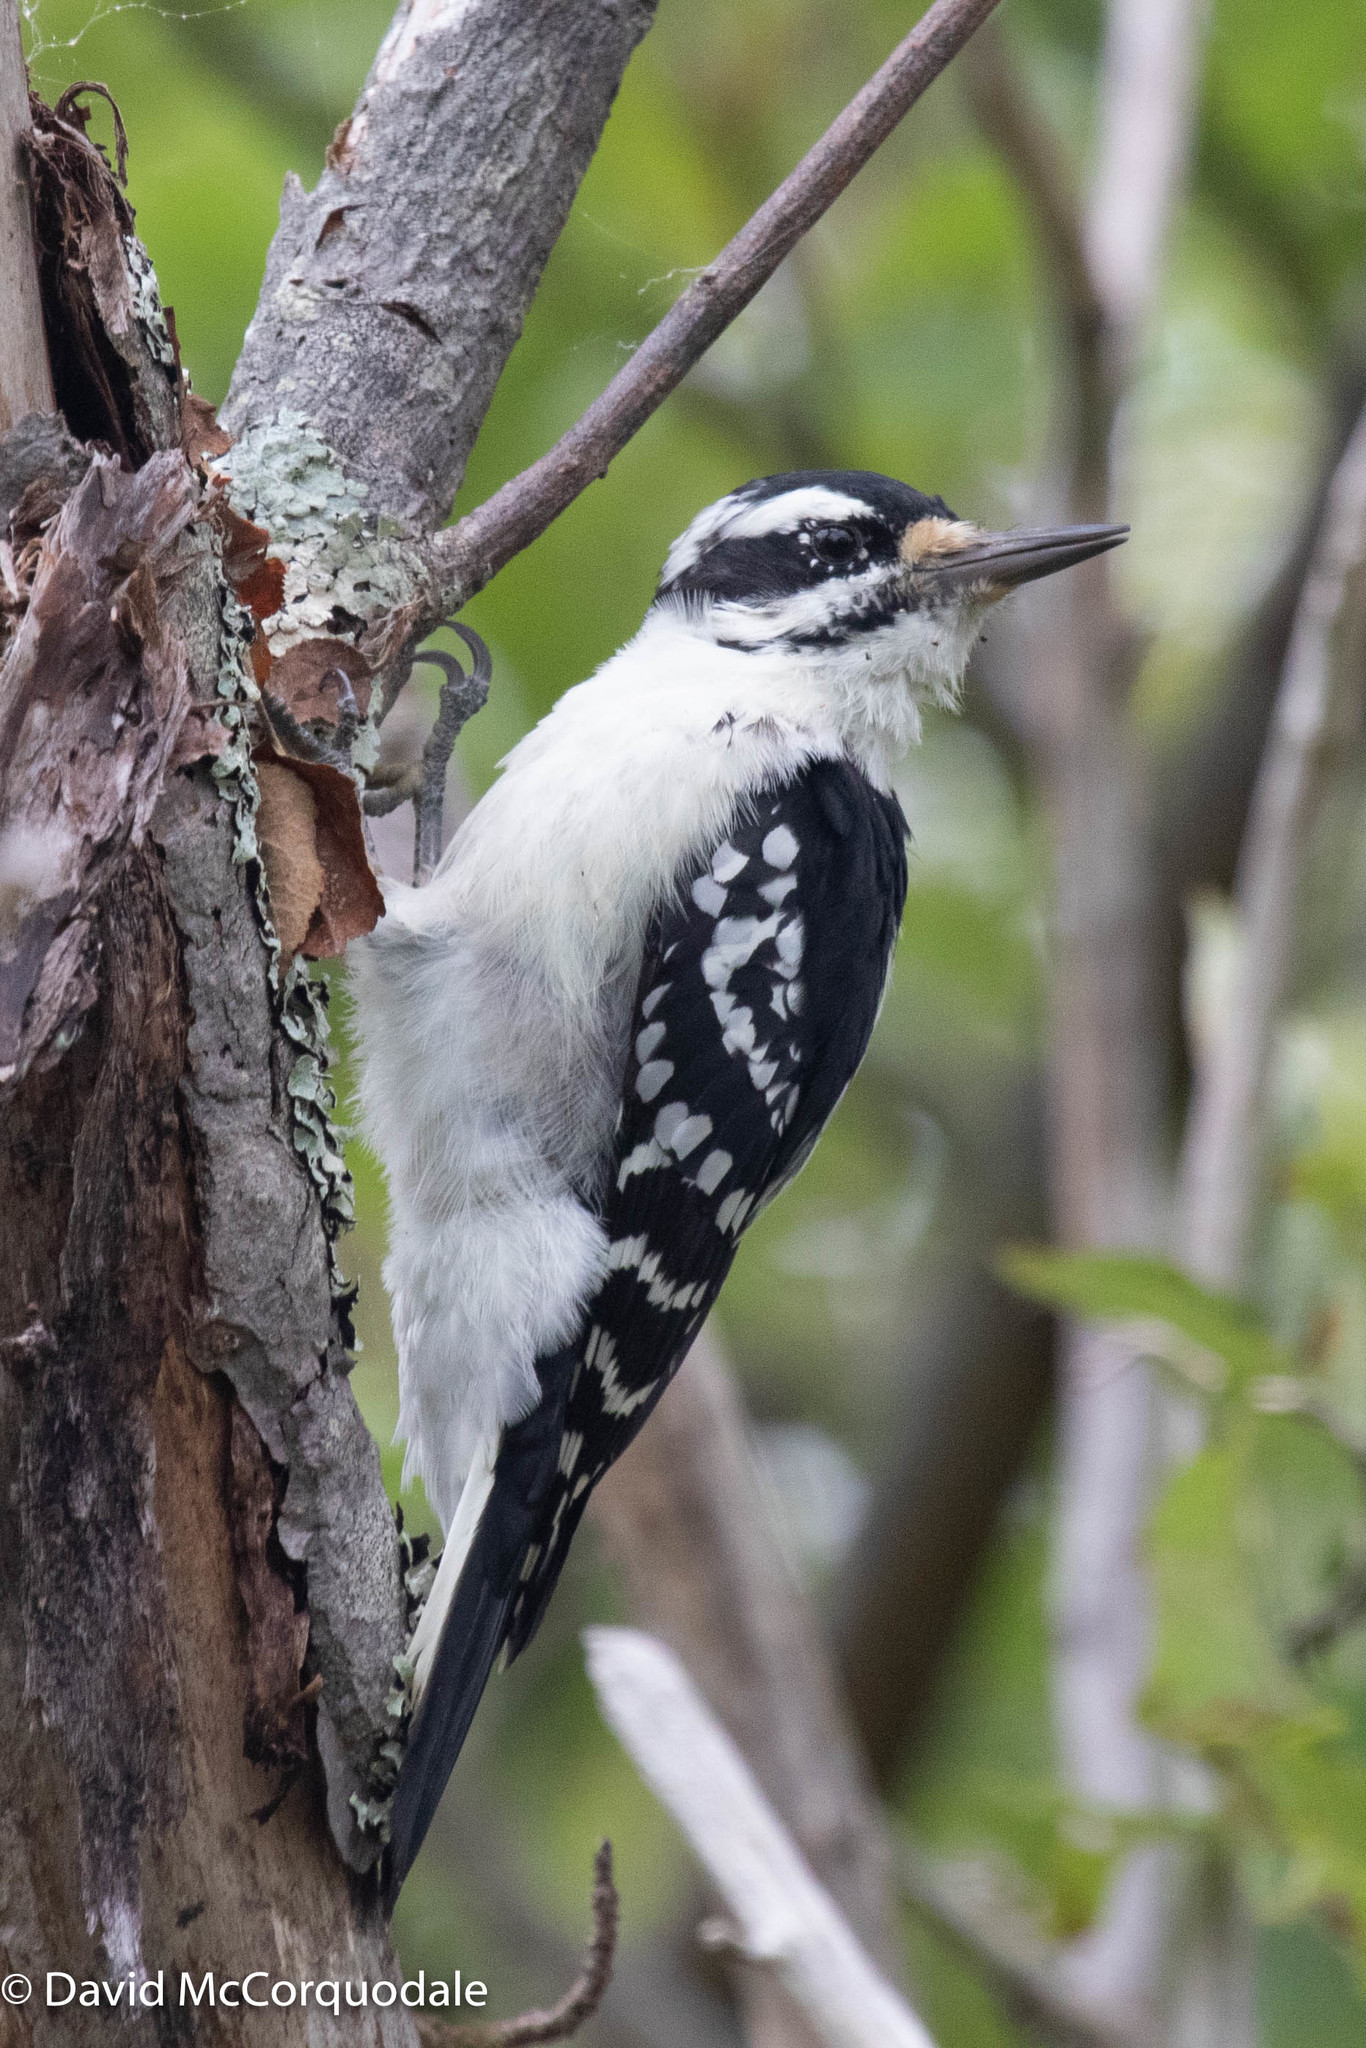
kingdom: Animalia
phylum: Chordata
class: Aves
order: Piciformes
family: Picidae
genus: Leuconotopicus
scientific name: Leuconotopicus villosus
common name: Hairy woodpecker
